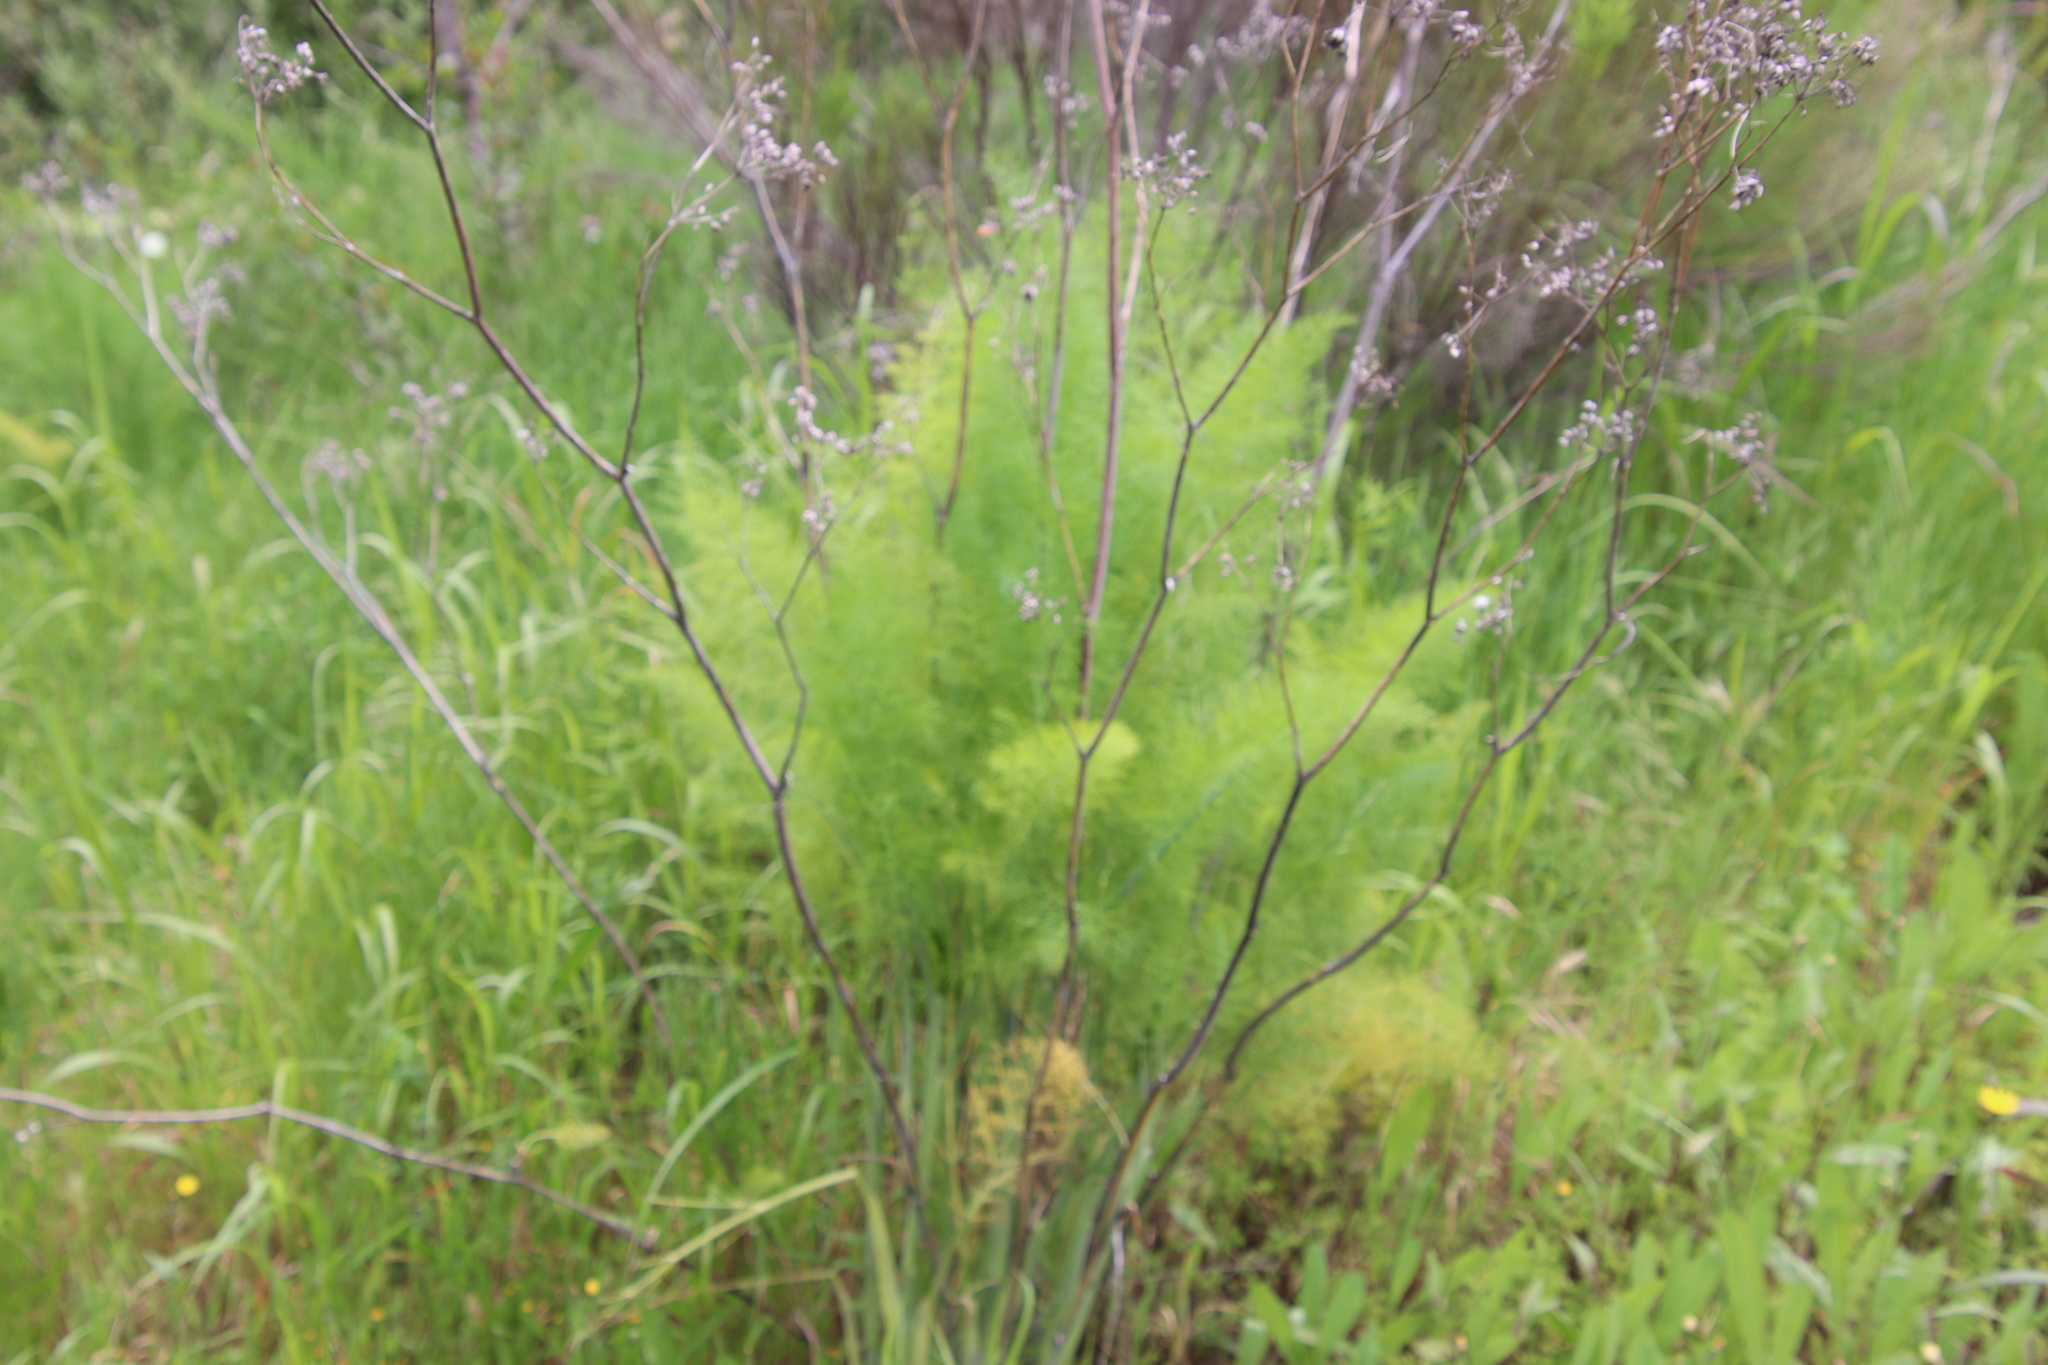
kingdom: Plantae
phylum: Tracheophyta
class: Magnoliopsida
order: Apiales
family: Apiaceae
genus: Foeniculum
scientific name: Foeniculum vulgare
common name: Fennel
